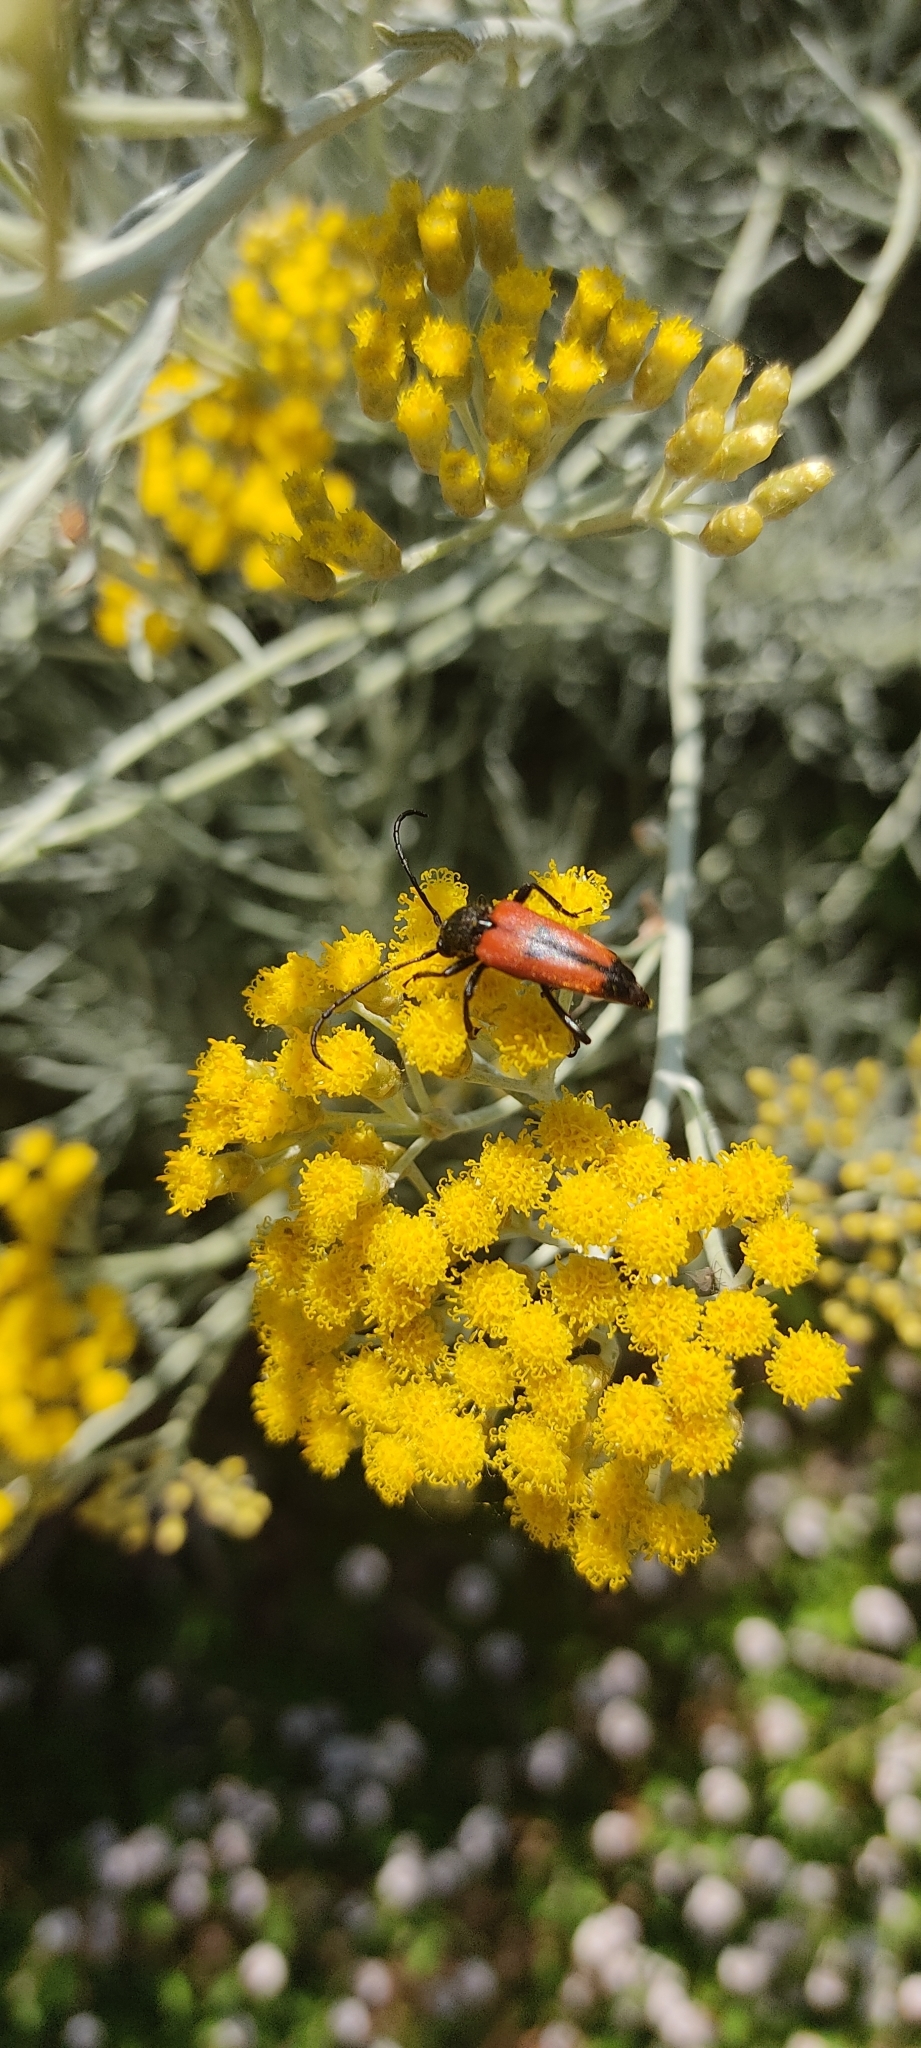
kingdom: Animalia
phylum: Arthropoda
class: Insecta
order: Coleoptera
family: Cerambycidae
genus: Stictoleptura
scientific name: Stictoleptura cordigera
